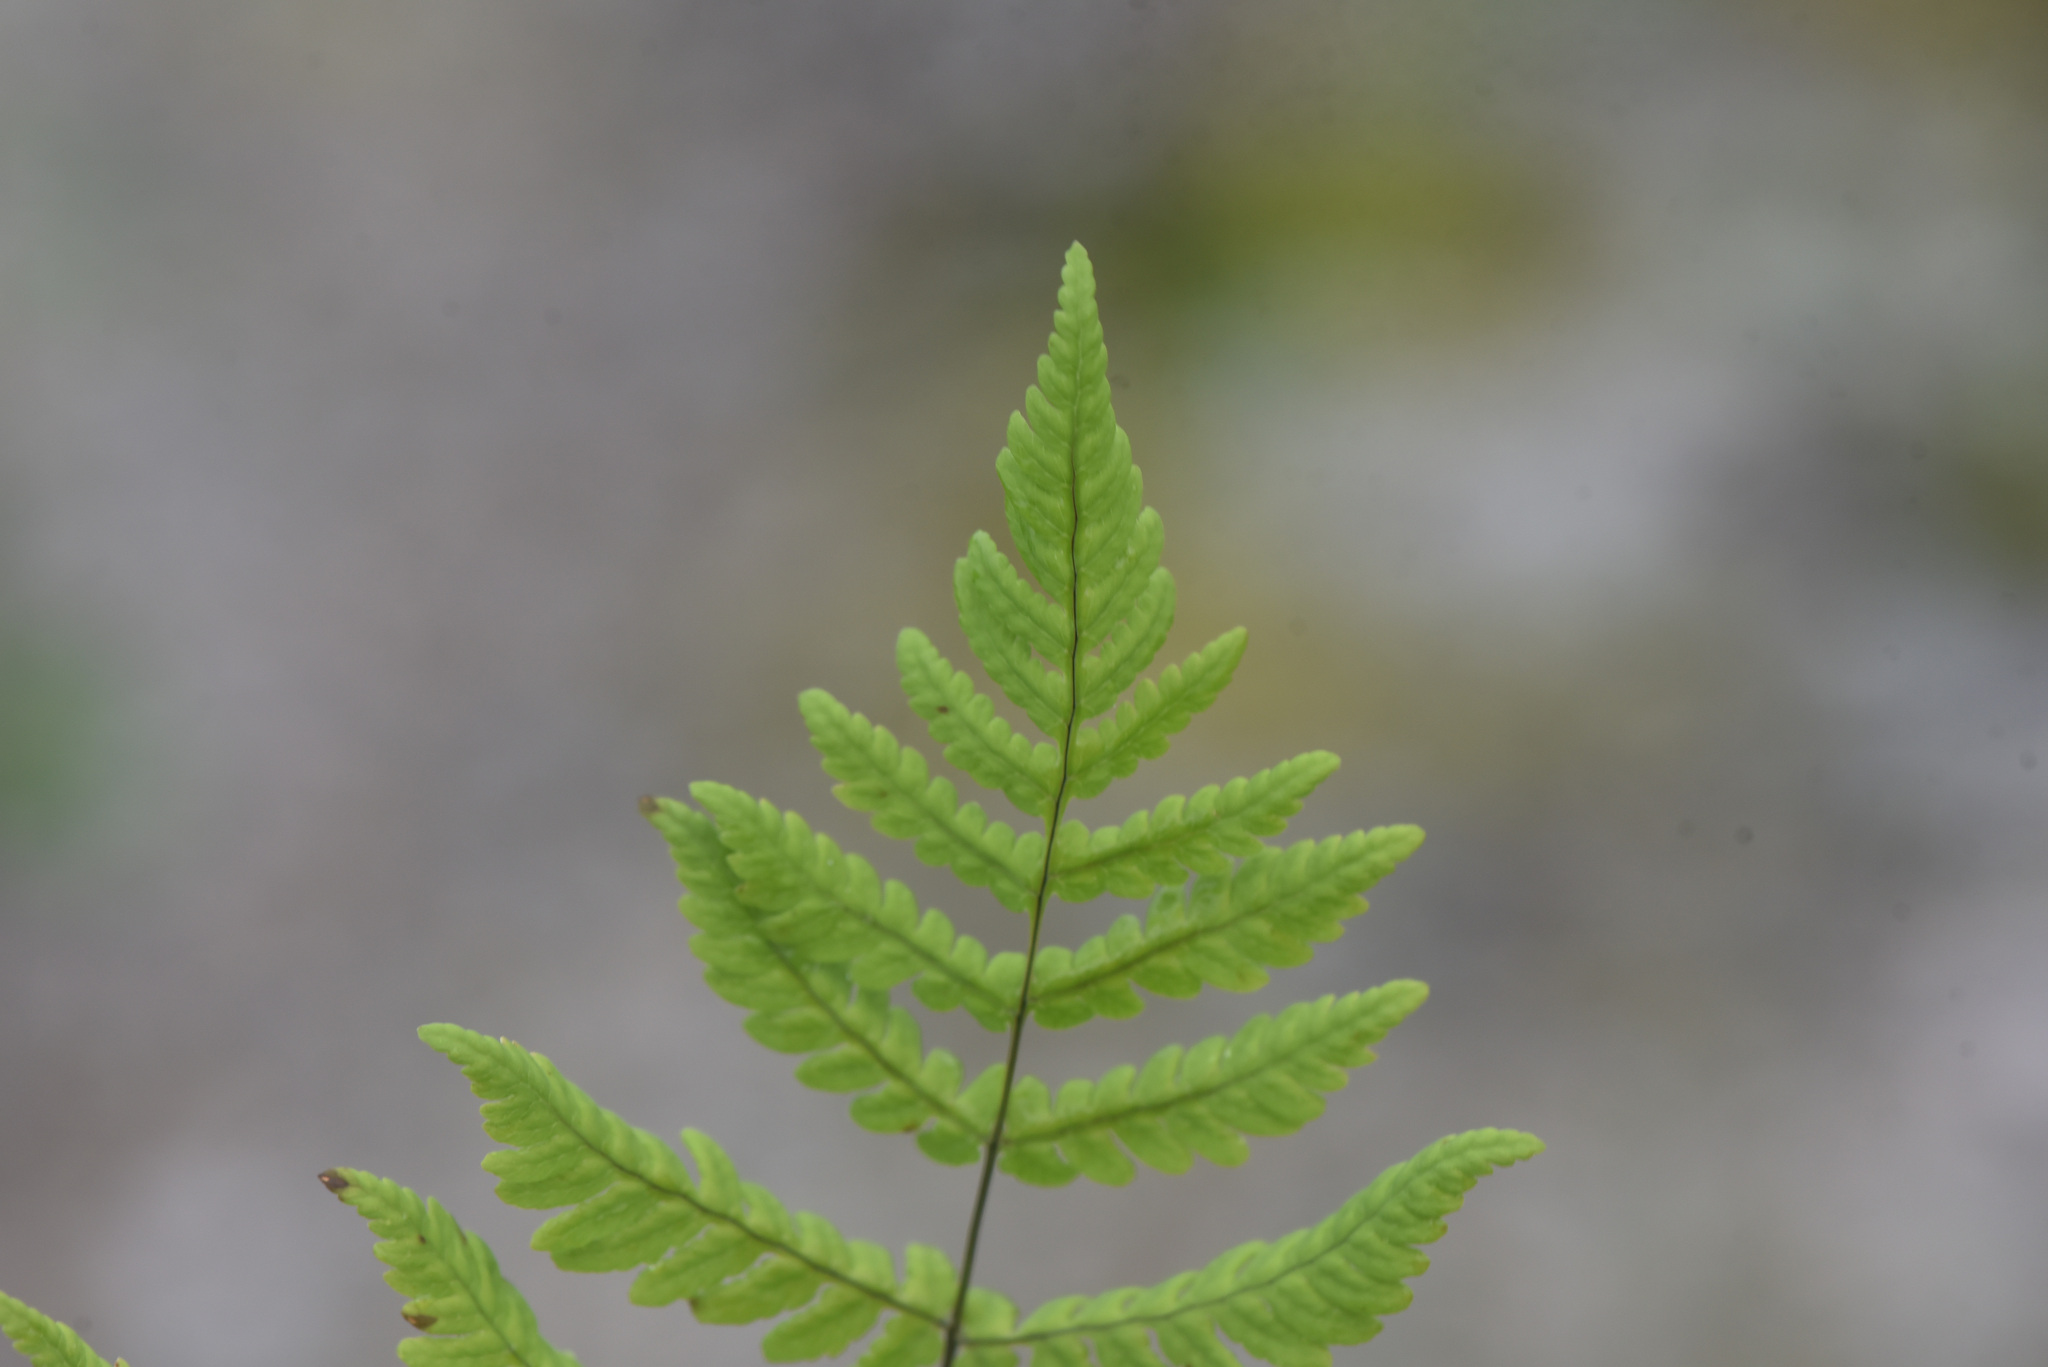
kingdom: Plantae
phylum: Tracheophyta
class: Polypodiopsida
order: Polypodiales
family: Cystopteridaceae
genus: Gymnocarpium
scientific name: Gymnocarpium disjunctum
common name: Western oak fern
